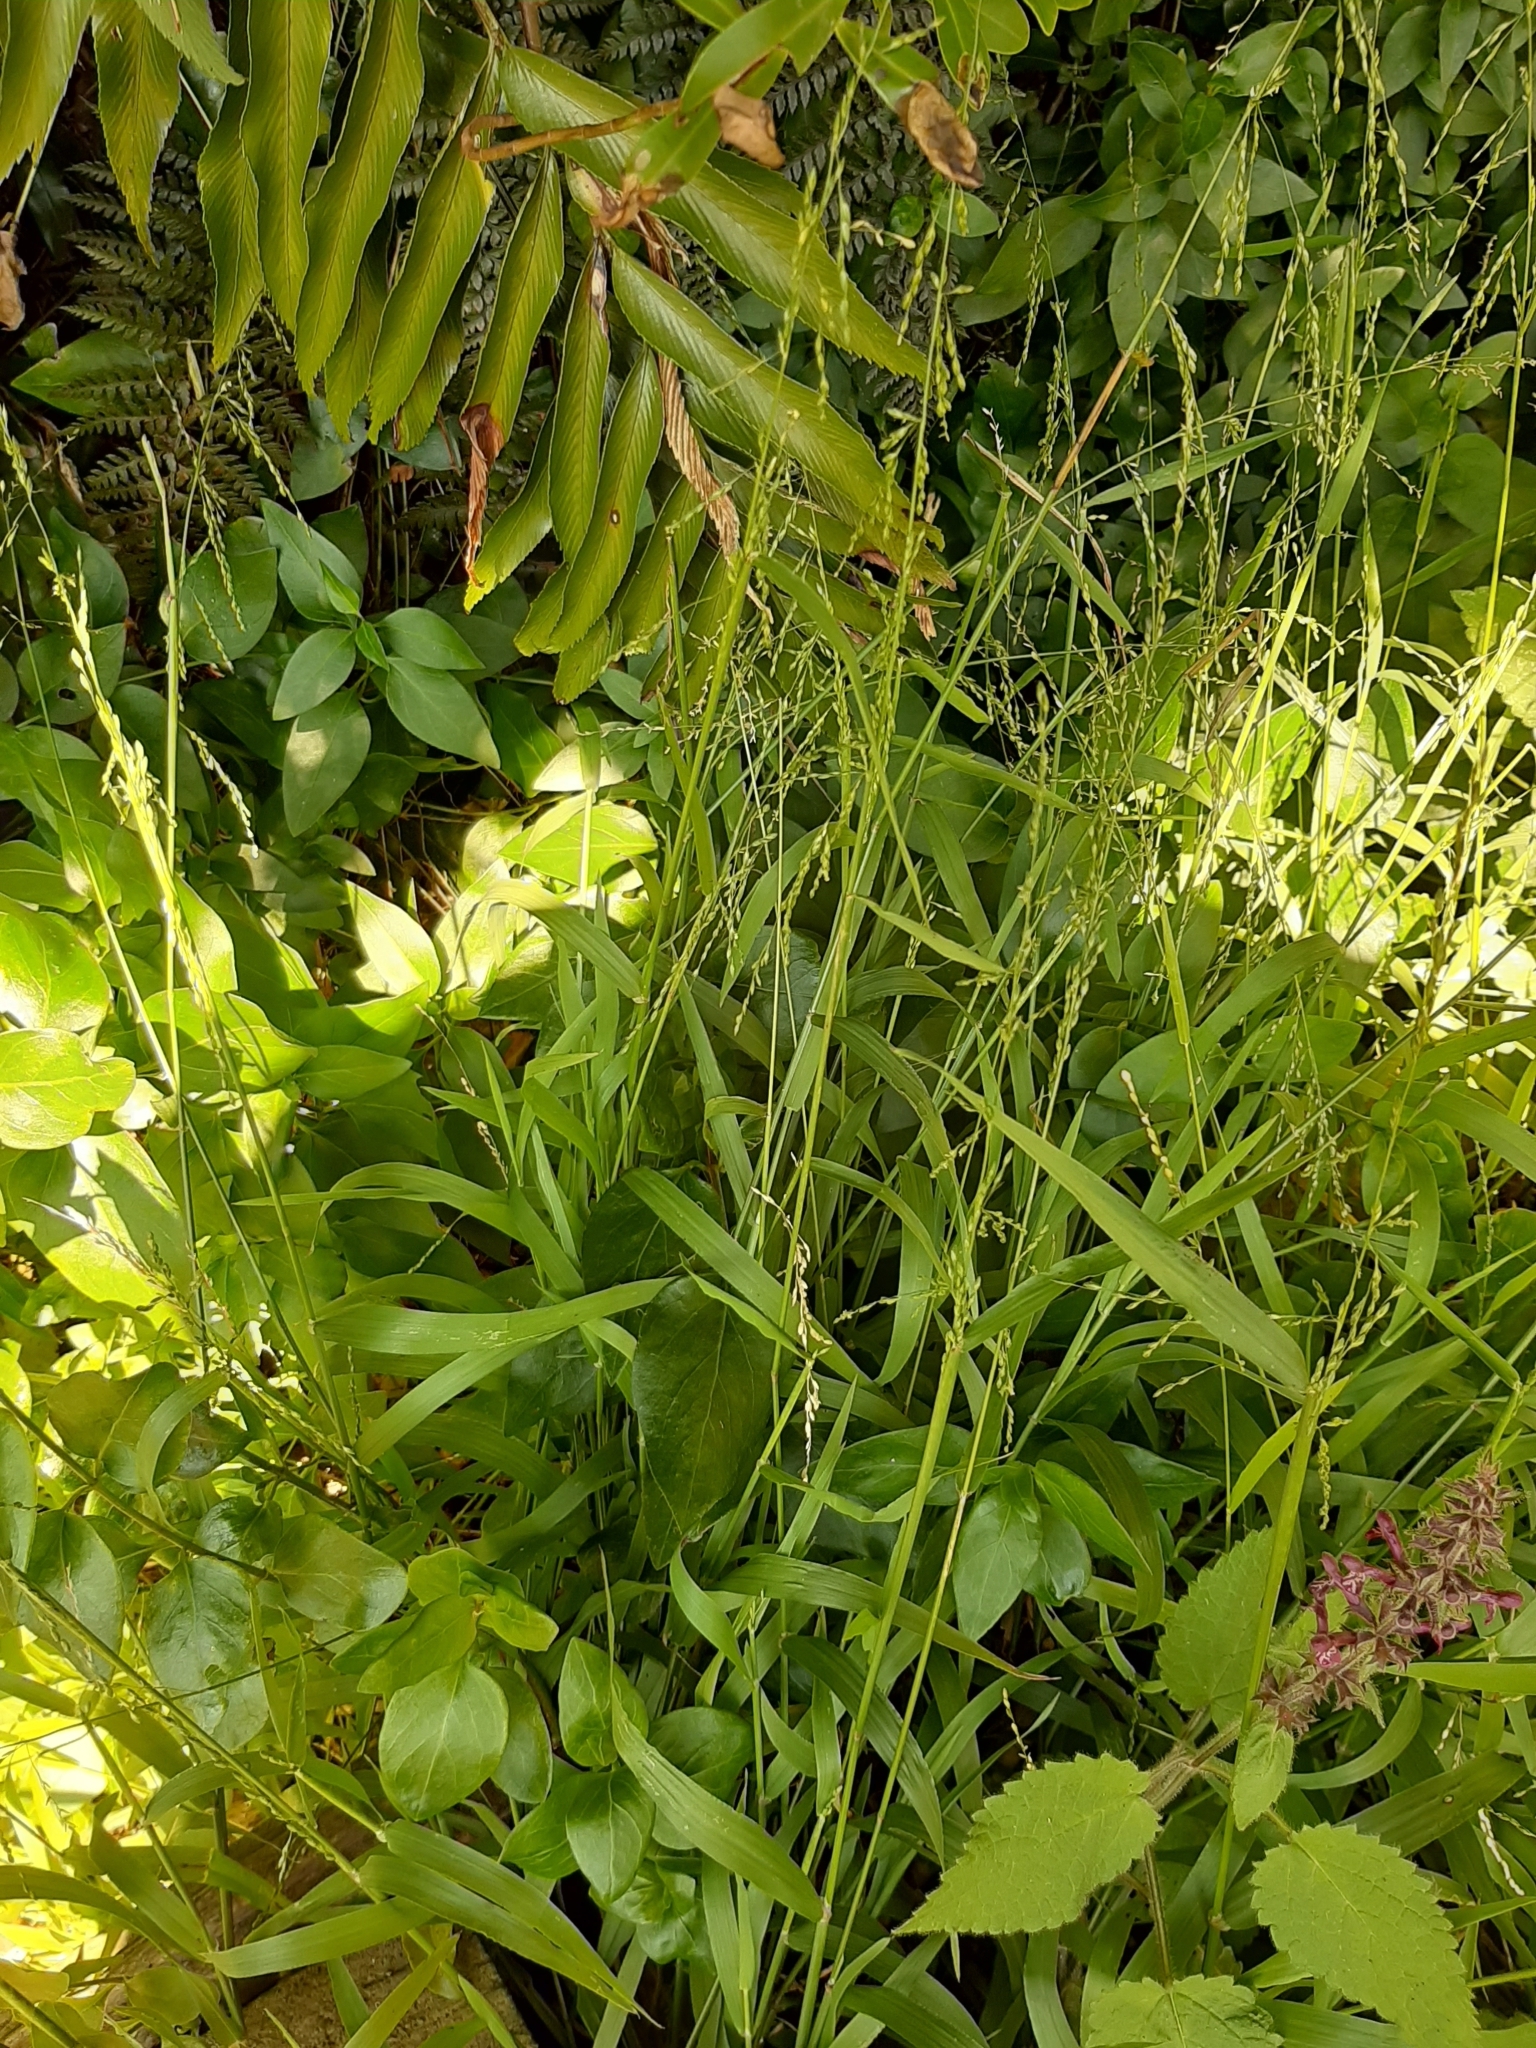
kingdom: Plantae
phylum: Tracheophyta
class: Liliopsida
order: Poales
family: Poaceae
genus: Ehrharta
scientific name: Ehrharta erecta
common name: Panic veldtgrass
